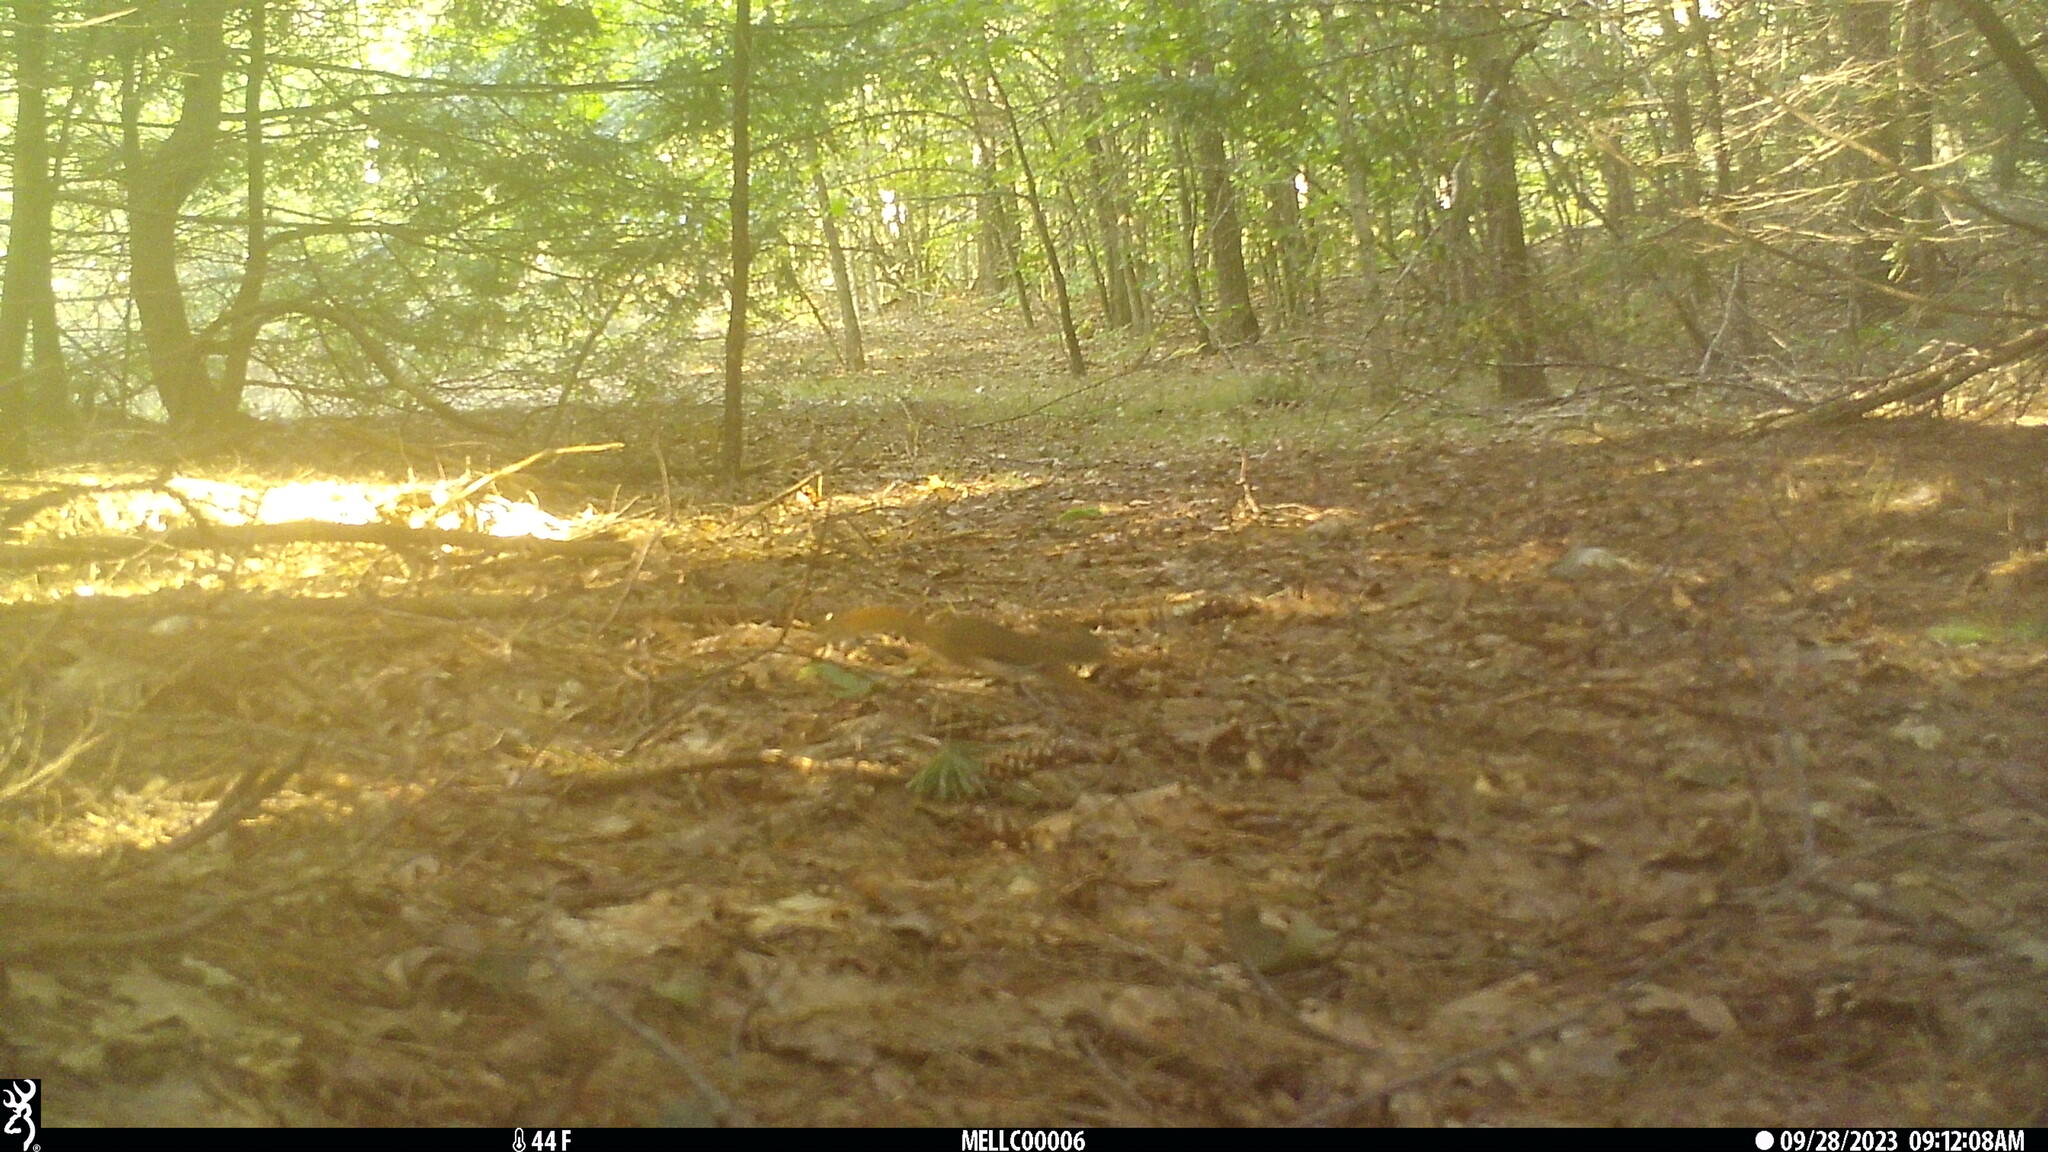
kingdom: Animalia
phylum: Chordata
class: Mammalia
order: Rodentia
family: Sciuridae
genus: Tamiasciurus
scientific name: Tamiasciurus hudsonicus
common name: Red squirrel
